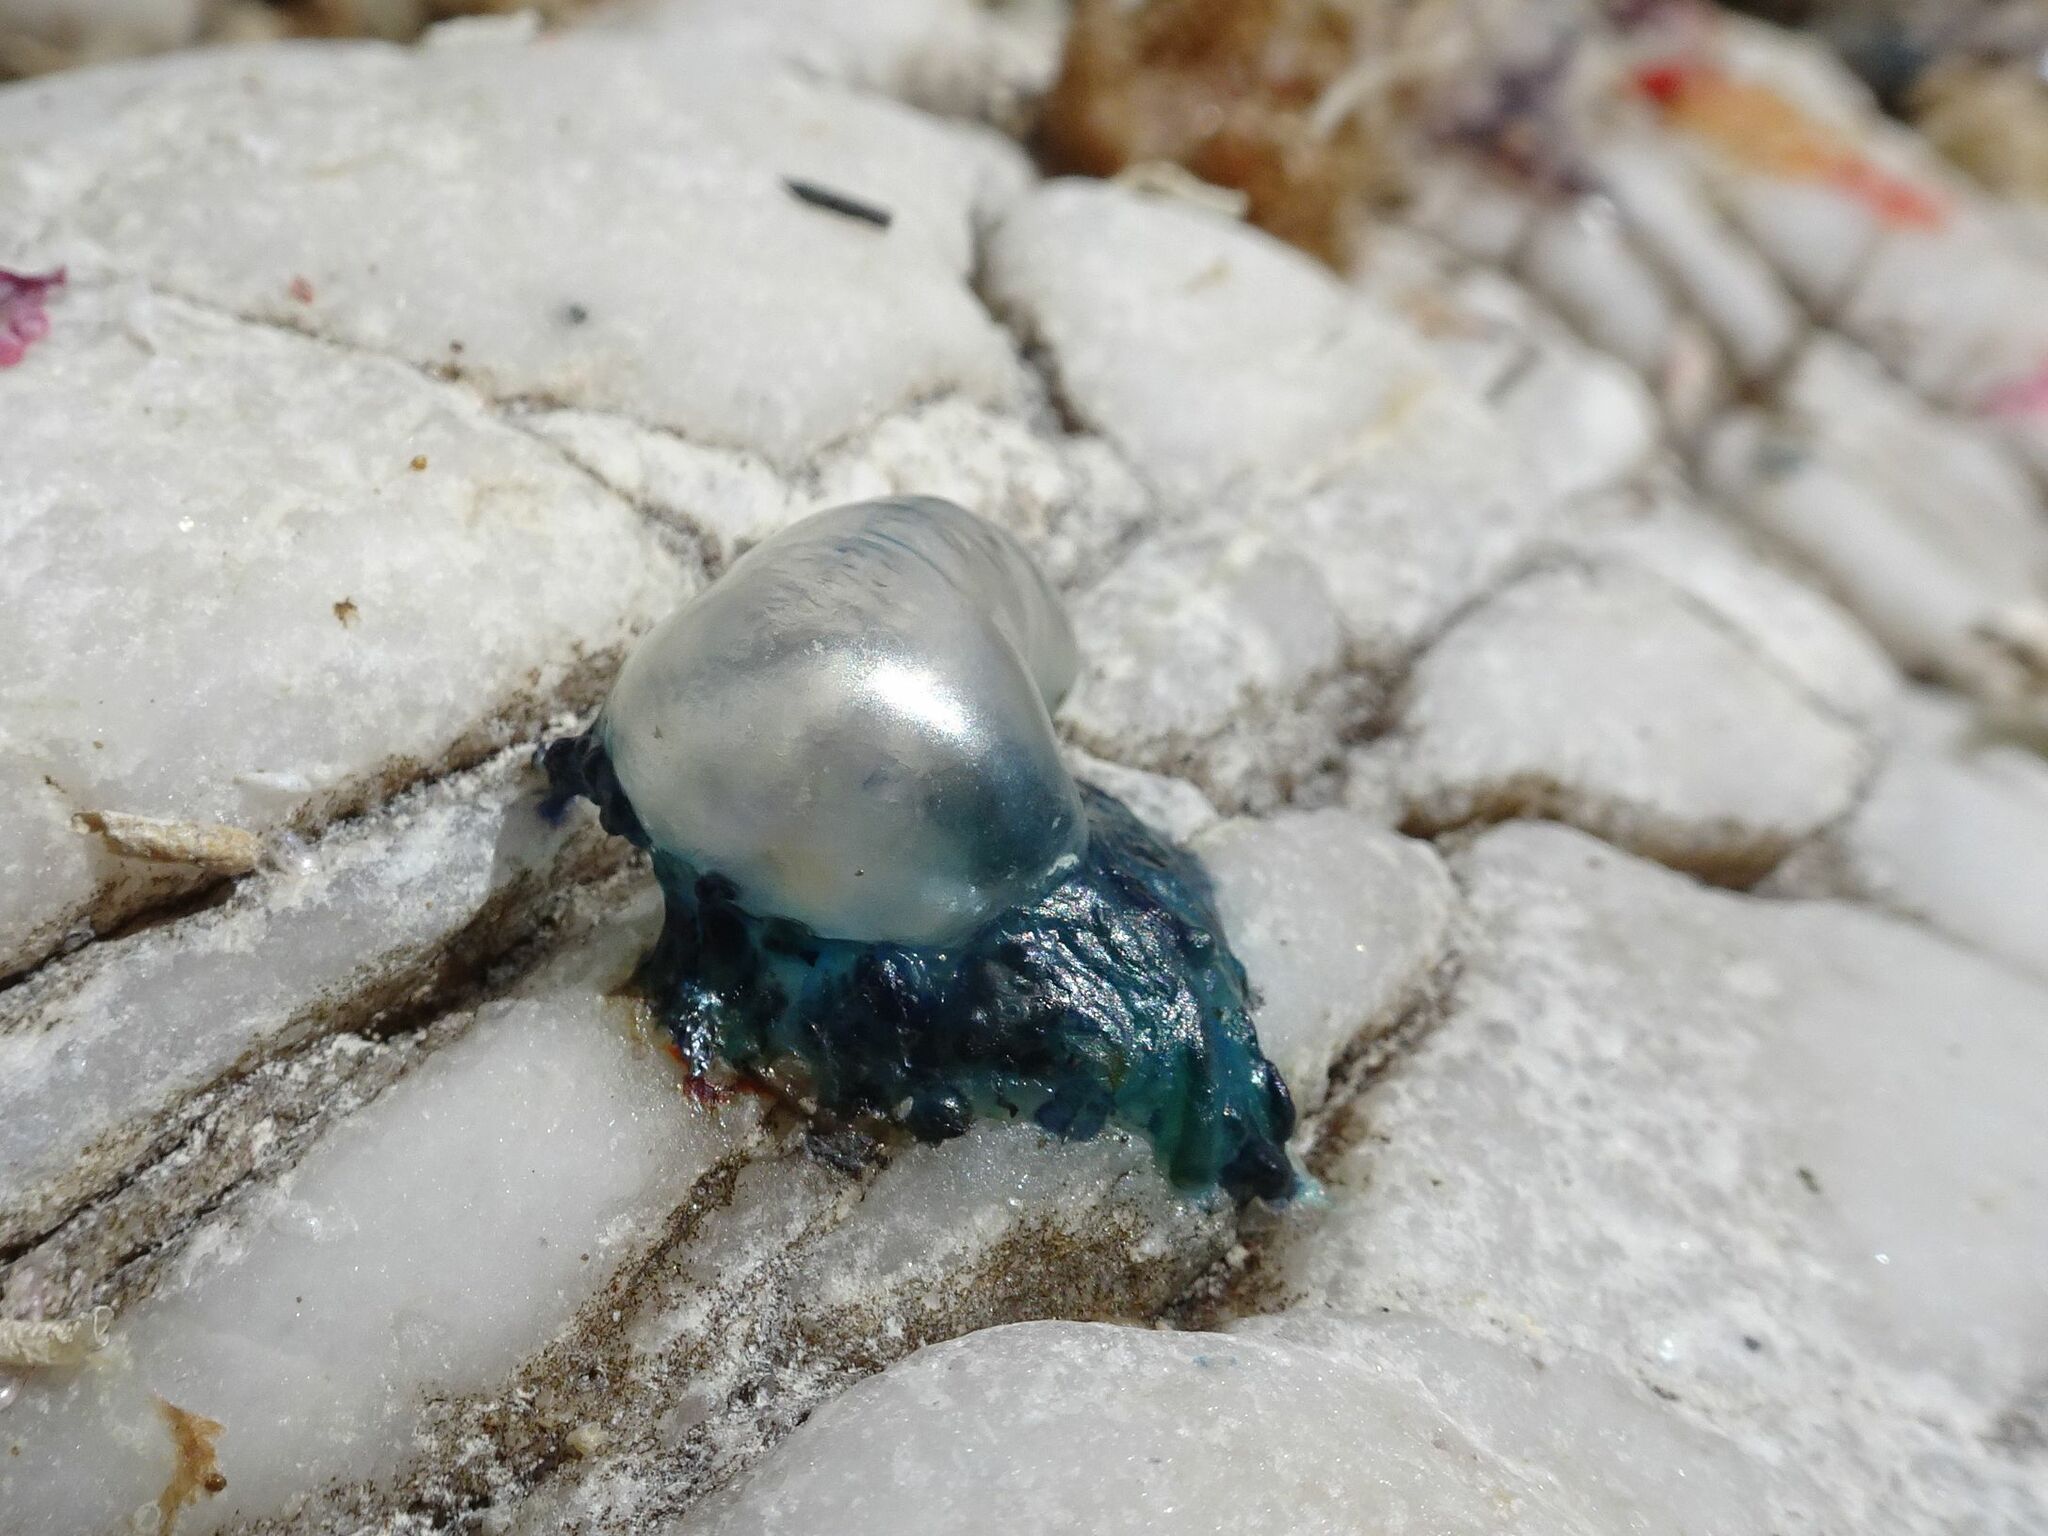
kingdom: Animalia
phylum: Cnidaria
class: Hydrozoa
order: Siphonophorae
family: Physaliidae
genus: Physalia
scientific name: Physalia physalis
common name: Portuguese man-of-war
